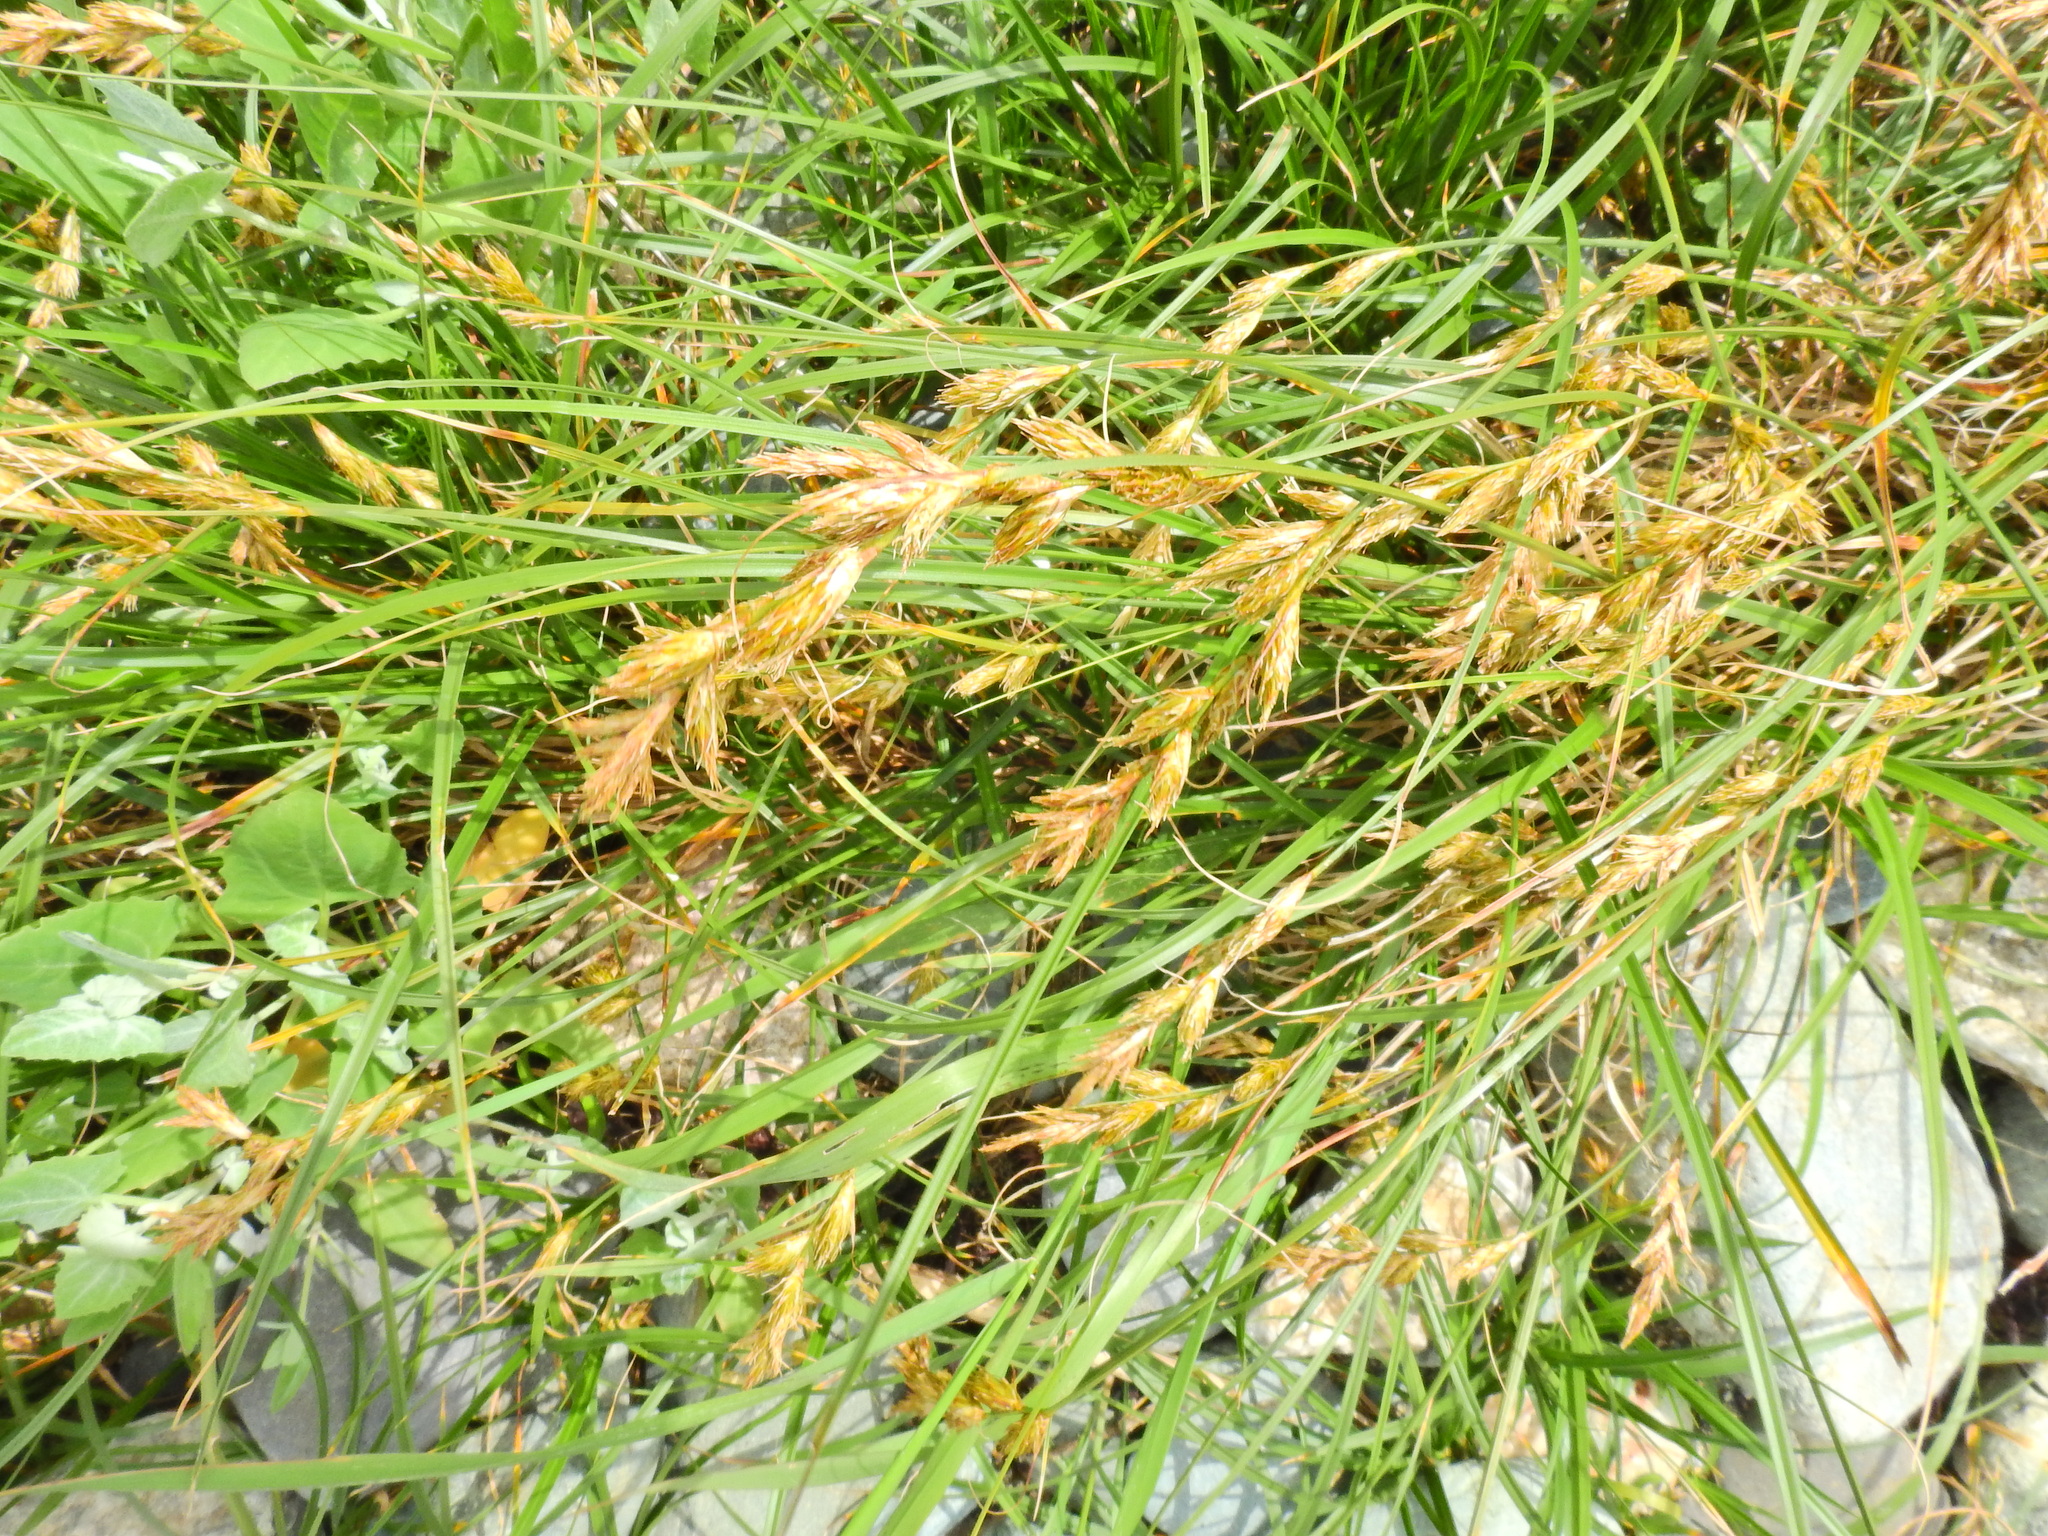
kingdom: Plantae
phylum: Tracheophyta
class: Liliopsida
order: Poales
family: Cyperaceae
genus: Carex
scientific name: Carex arenaria
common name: Sand sedge
